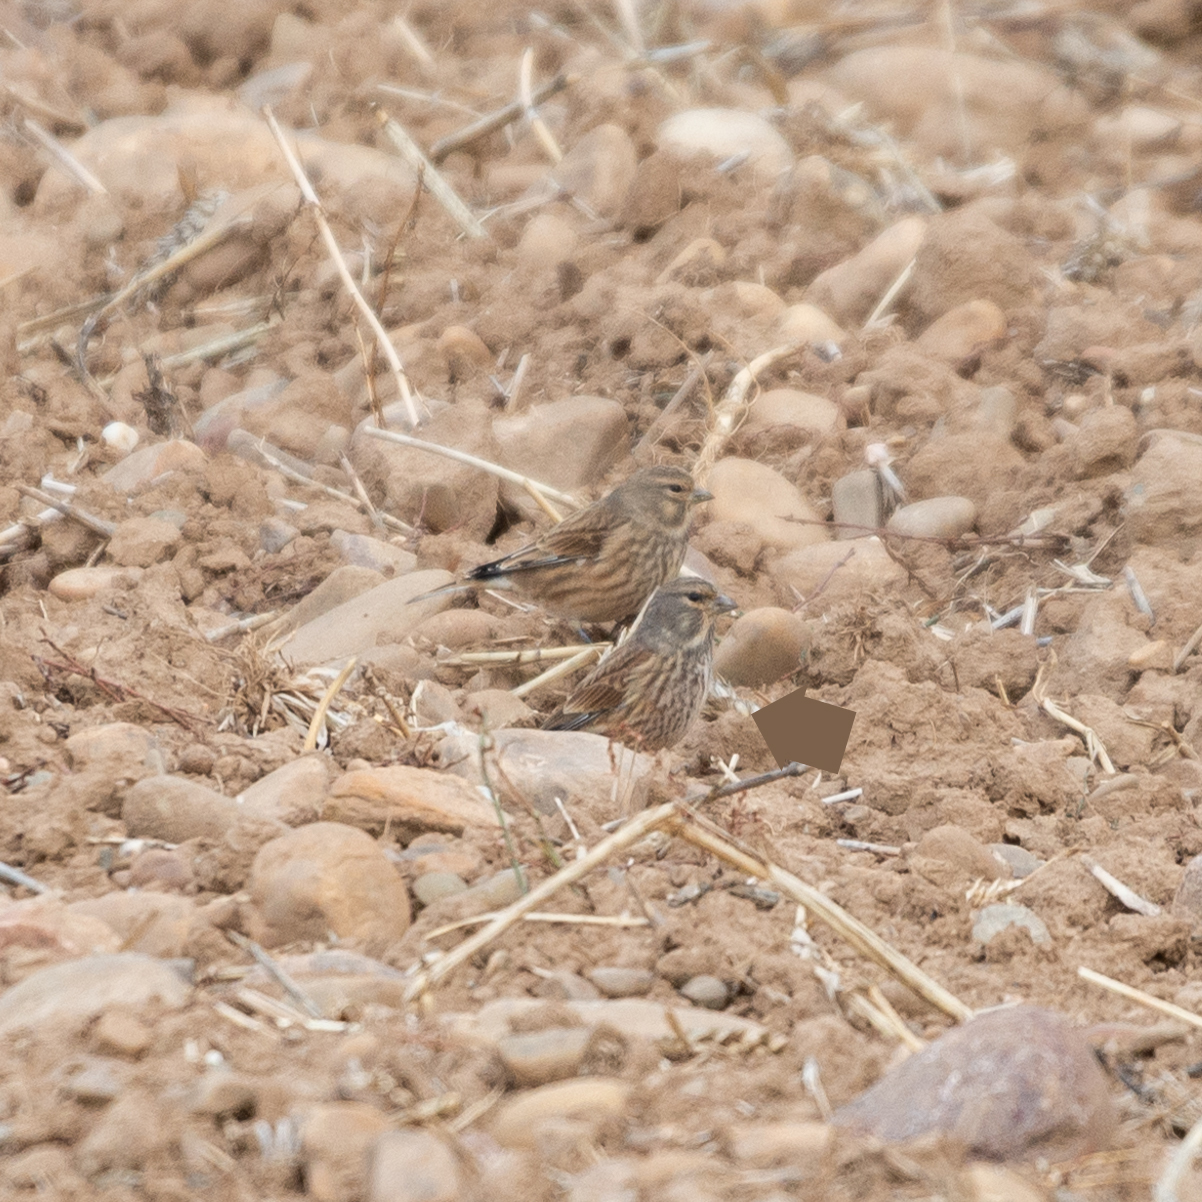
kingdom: Animalia
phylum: Chordata
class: Aves
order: Passeriformes
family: Fringillidae
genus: Linaria
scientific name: Linaria cannabina
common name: Common linnet
